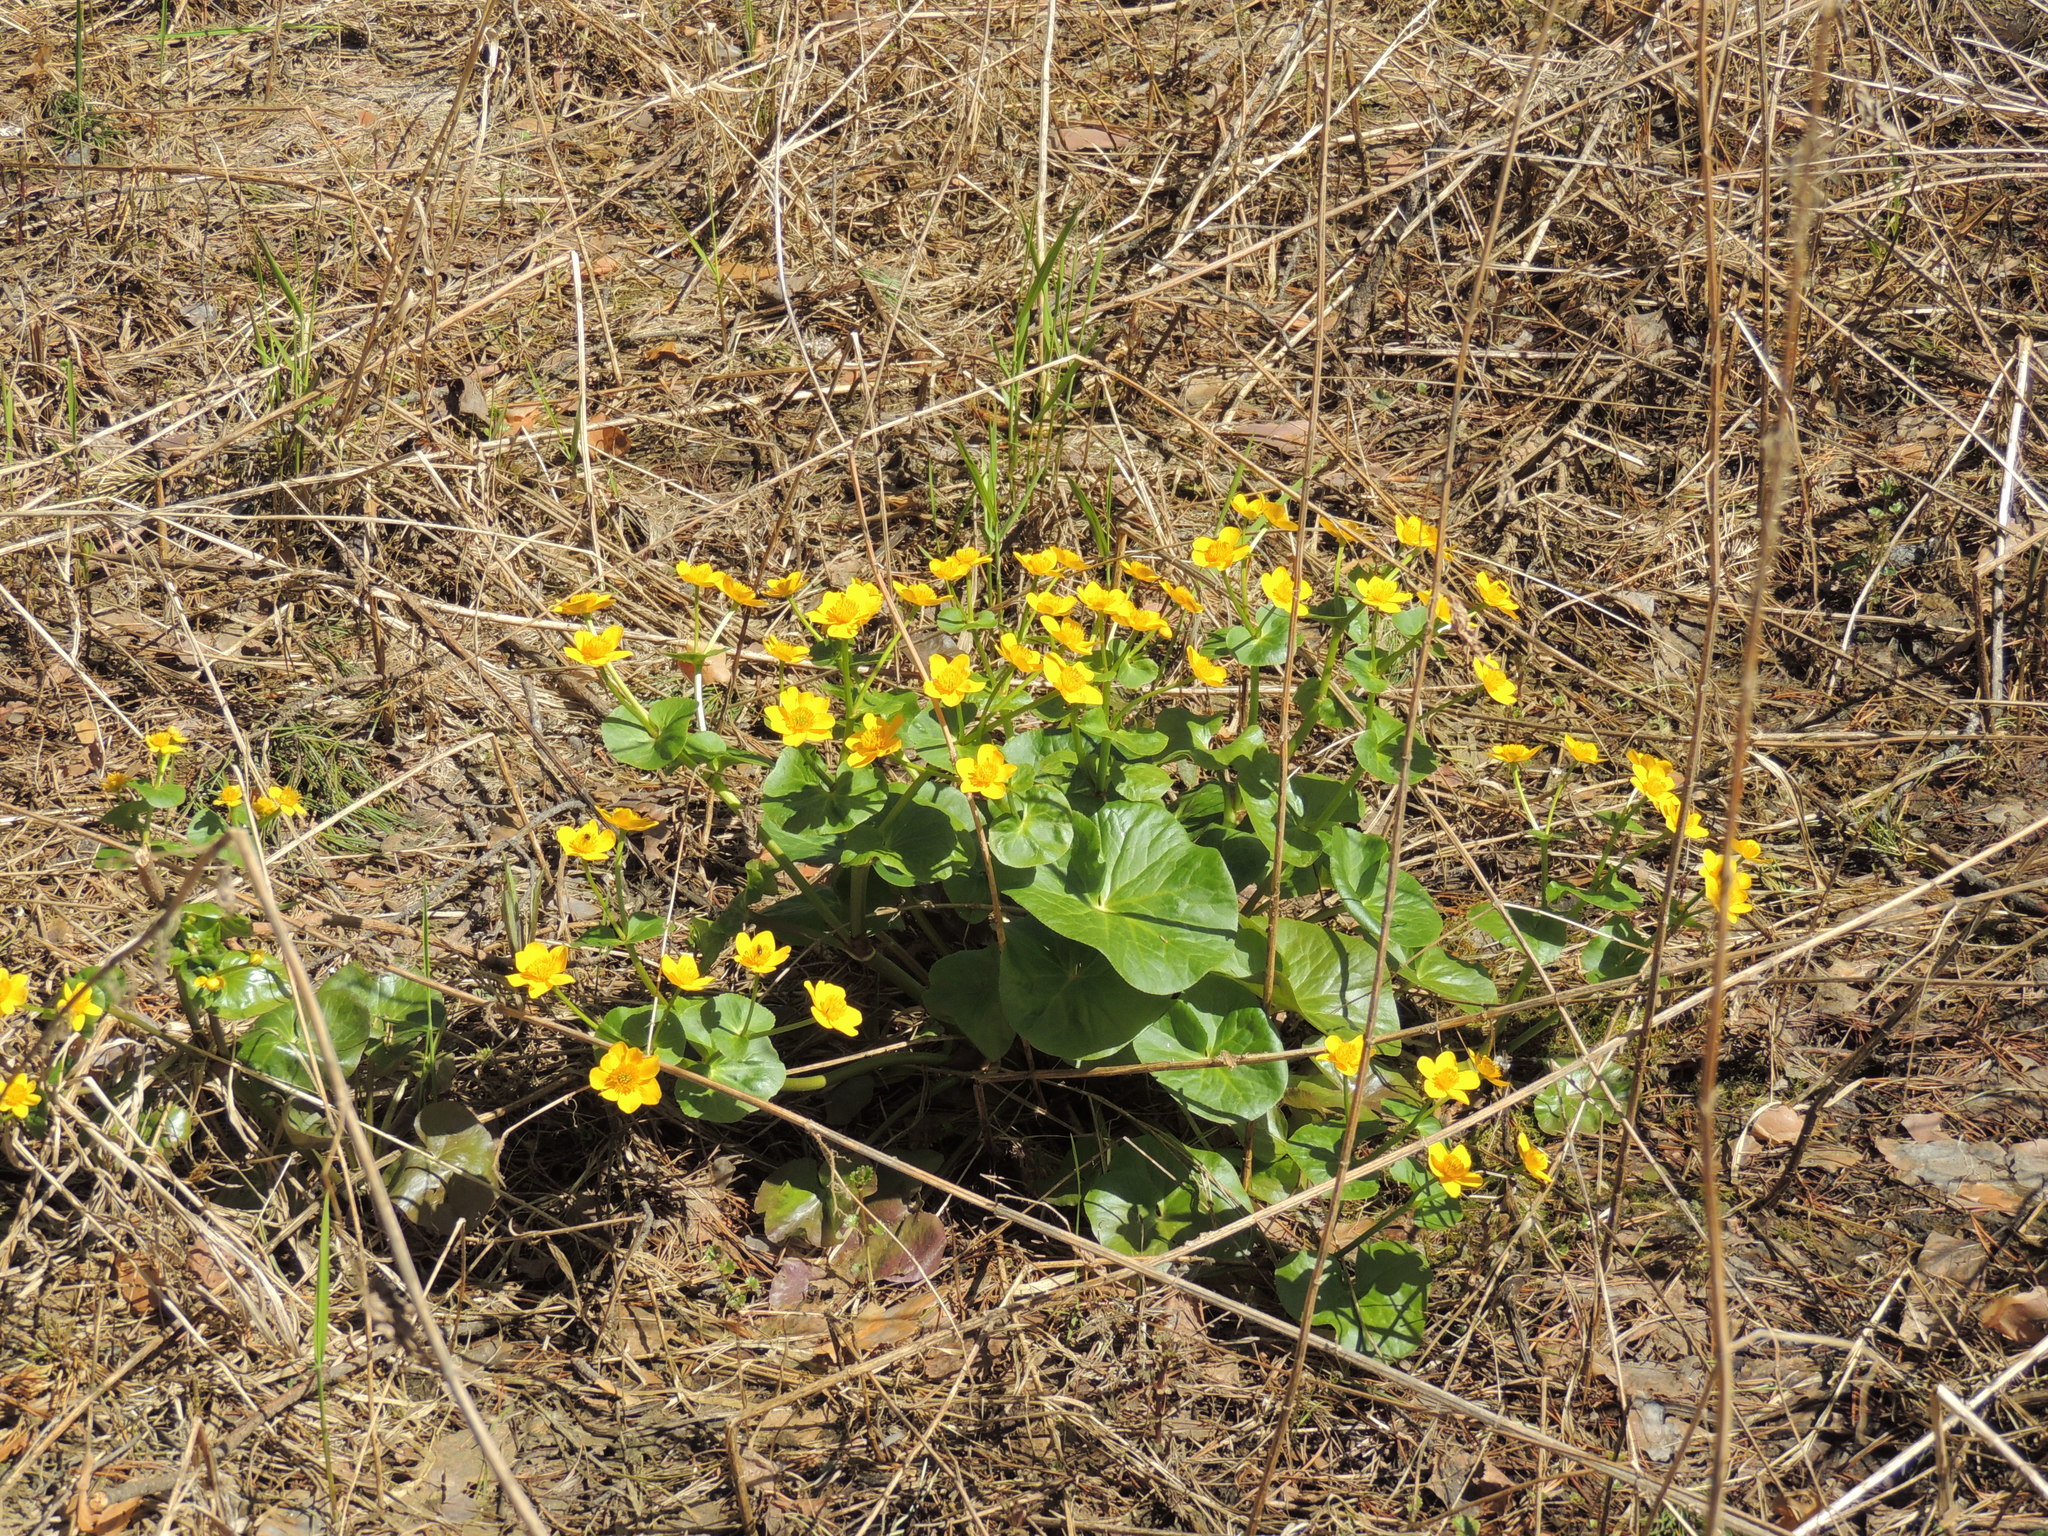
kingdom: Plantae
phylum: Tracheophyta
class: Magnoliopsida
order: Ranunculales
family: Ranunculaceae
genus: Caltha
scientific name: Caltha palustris
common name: Marsh marigold
